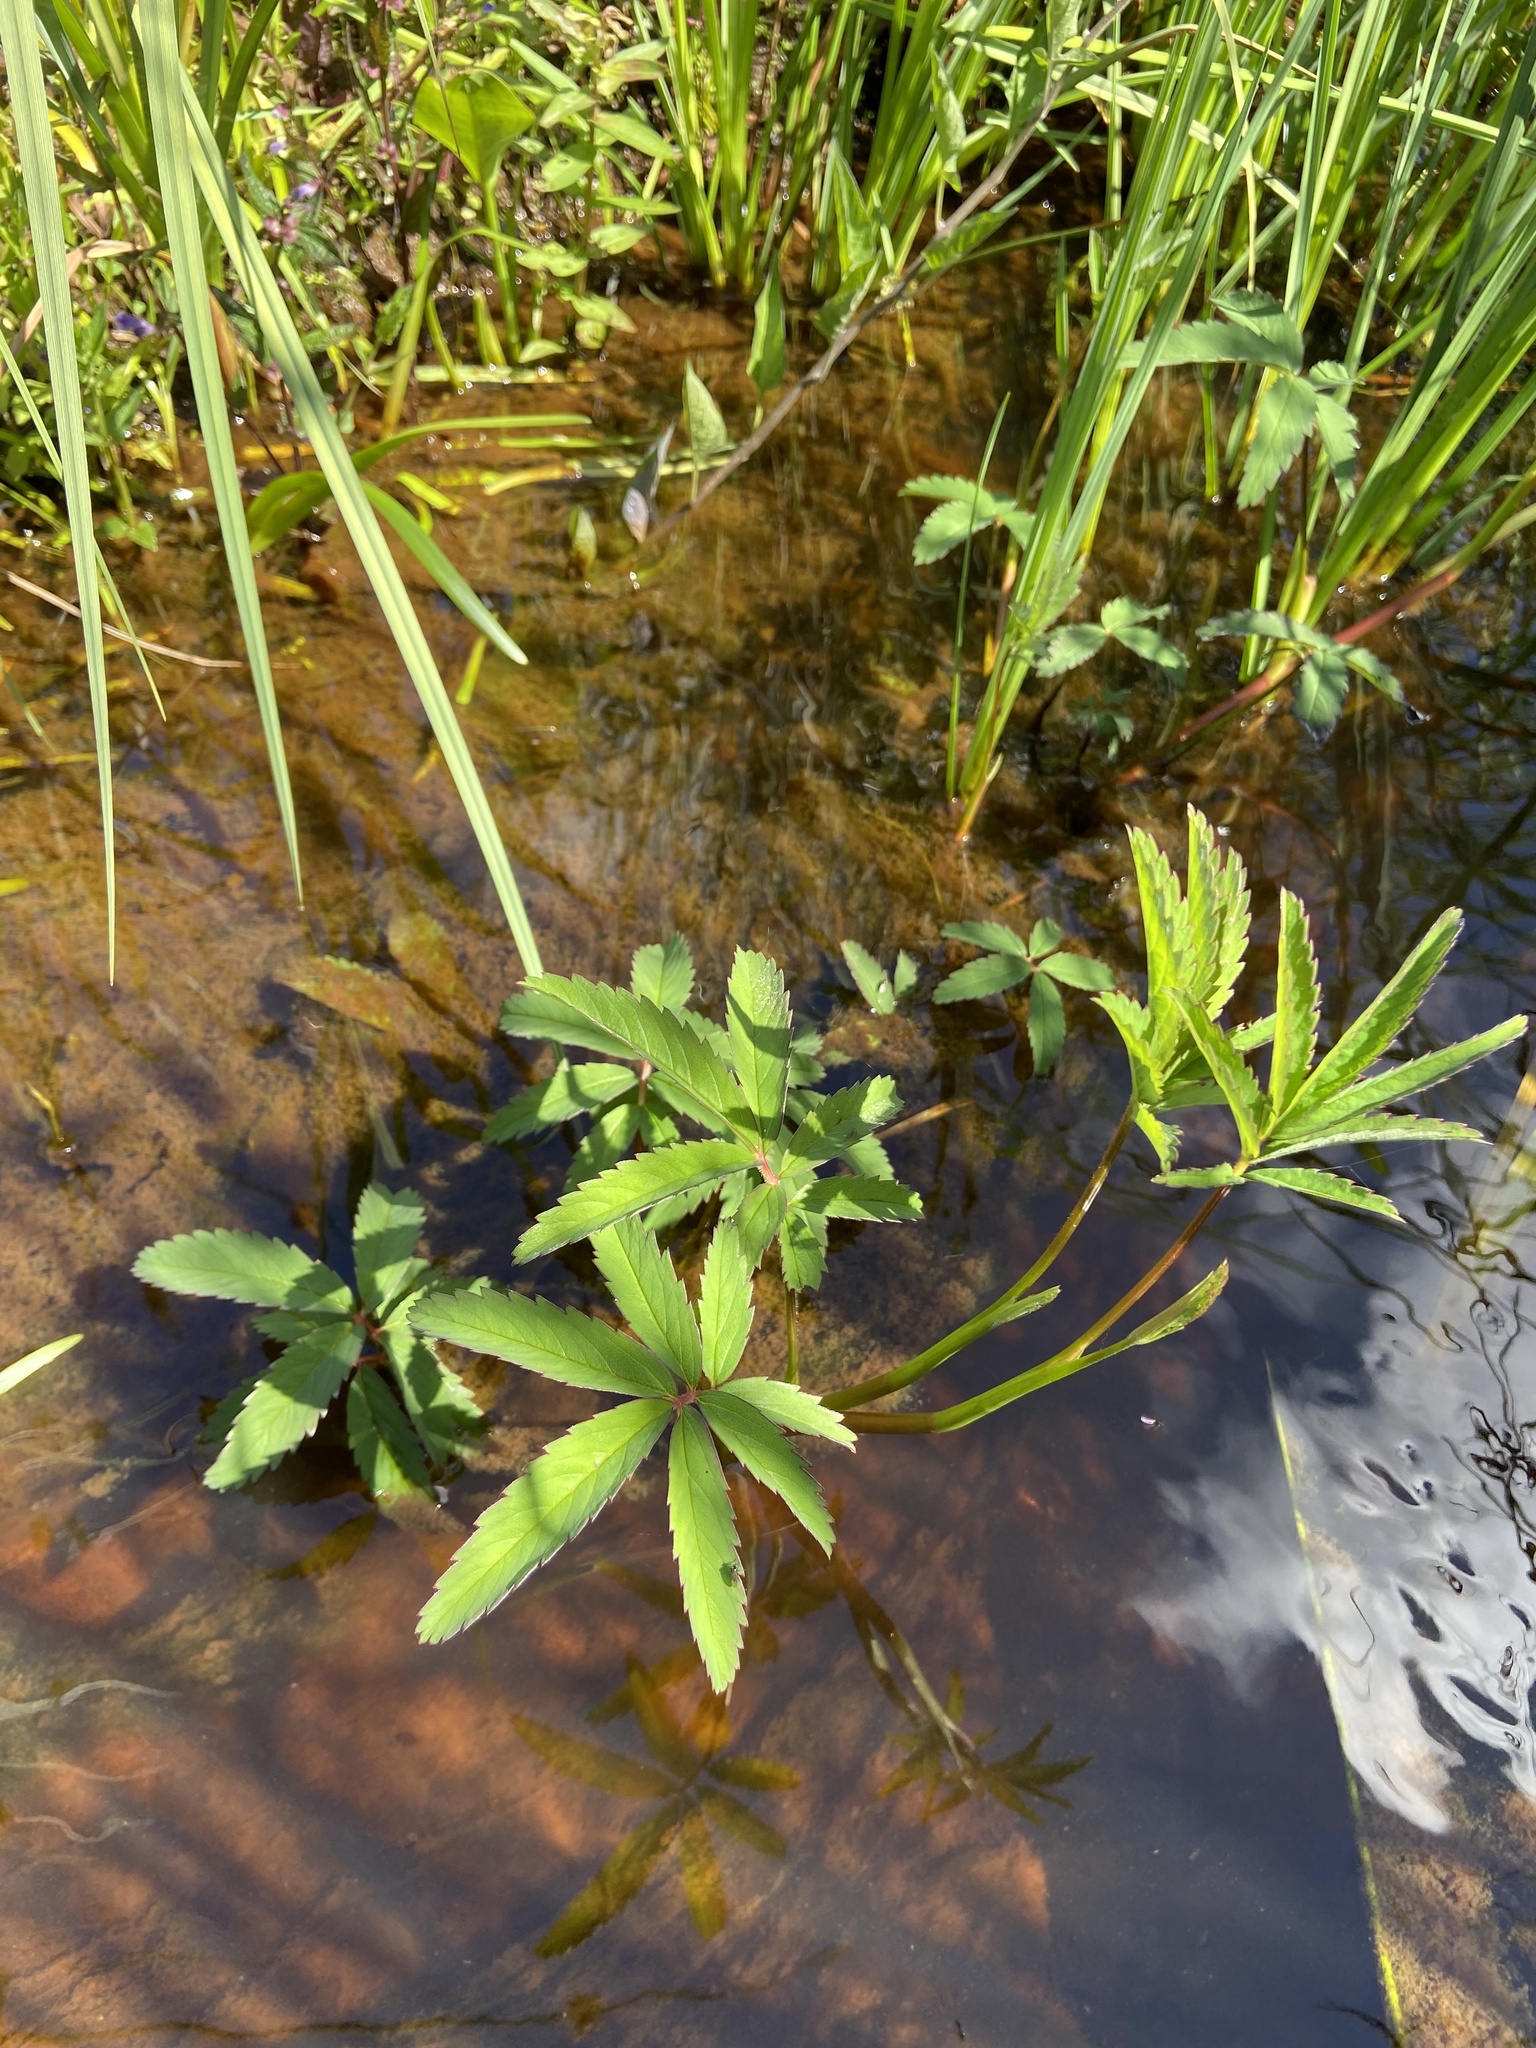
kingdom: Plantae
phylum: Tracheophyta
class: Magnoliopsida
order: Rosales
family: Rosaceae
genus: Comarum
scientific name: Comarum palustre
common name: Marsh cinquefoil
